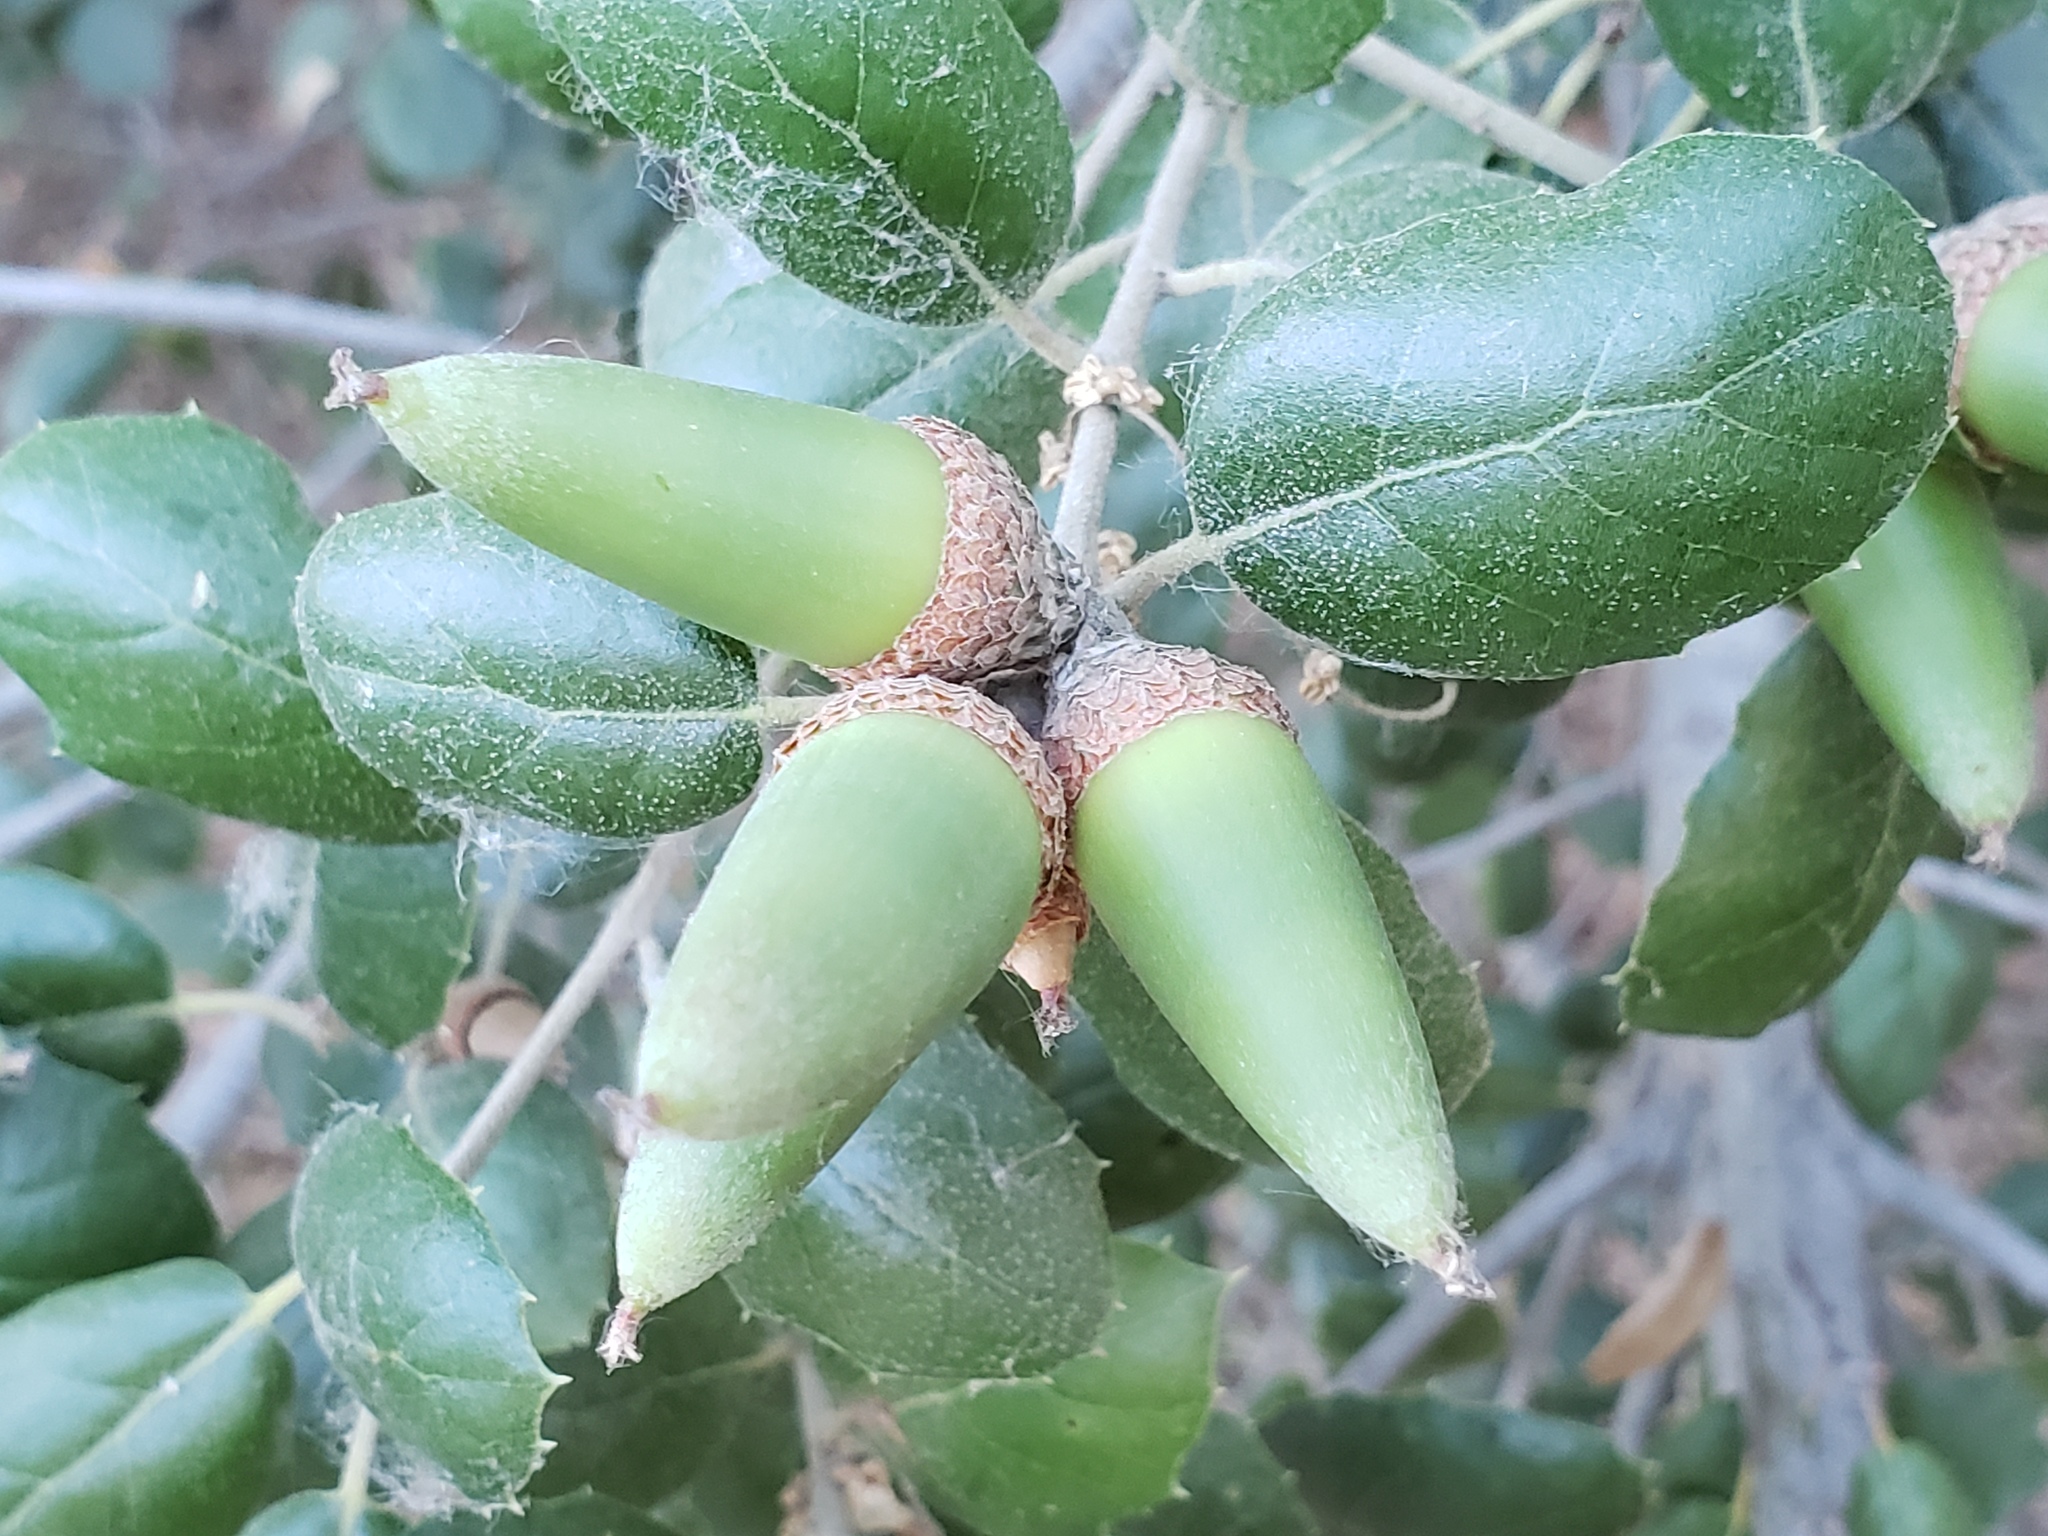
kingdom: Plantae
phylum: Tracheophyta
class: Magnoliopsida
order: Fagales
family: Fagaceae
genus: Quercus
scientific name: Quercus agrifolia
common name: California live oak
